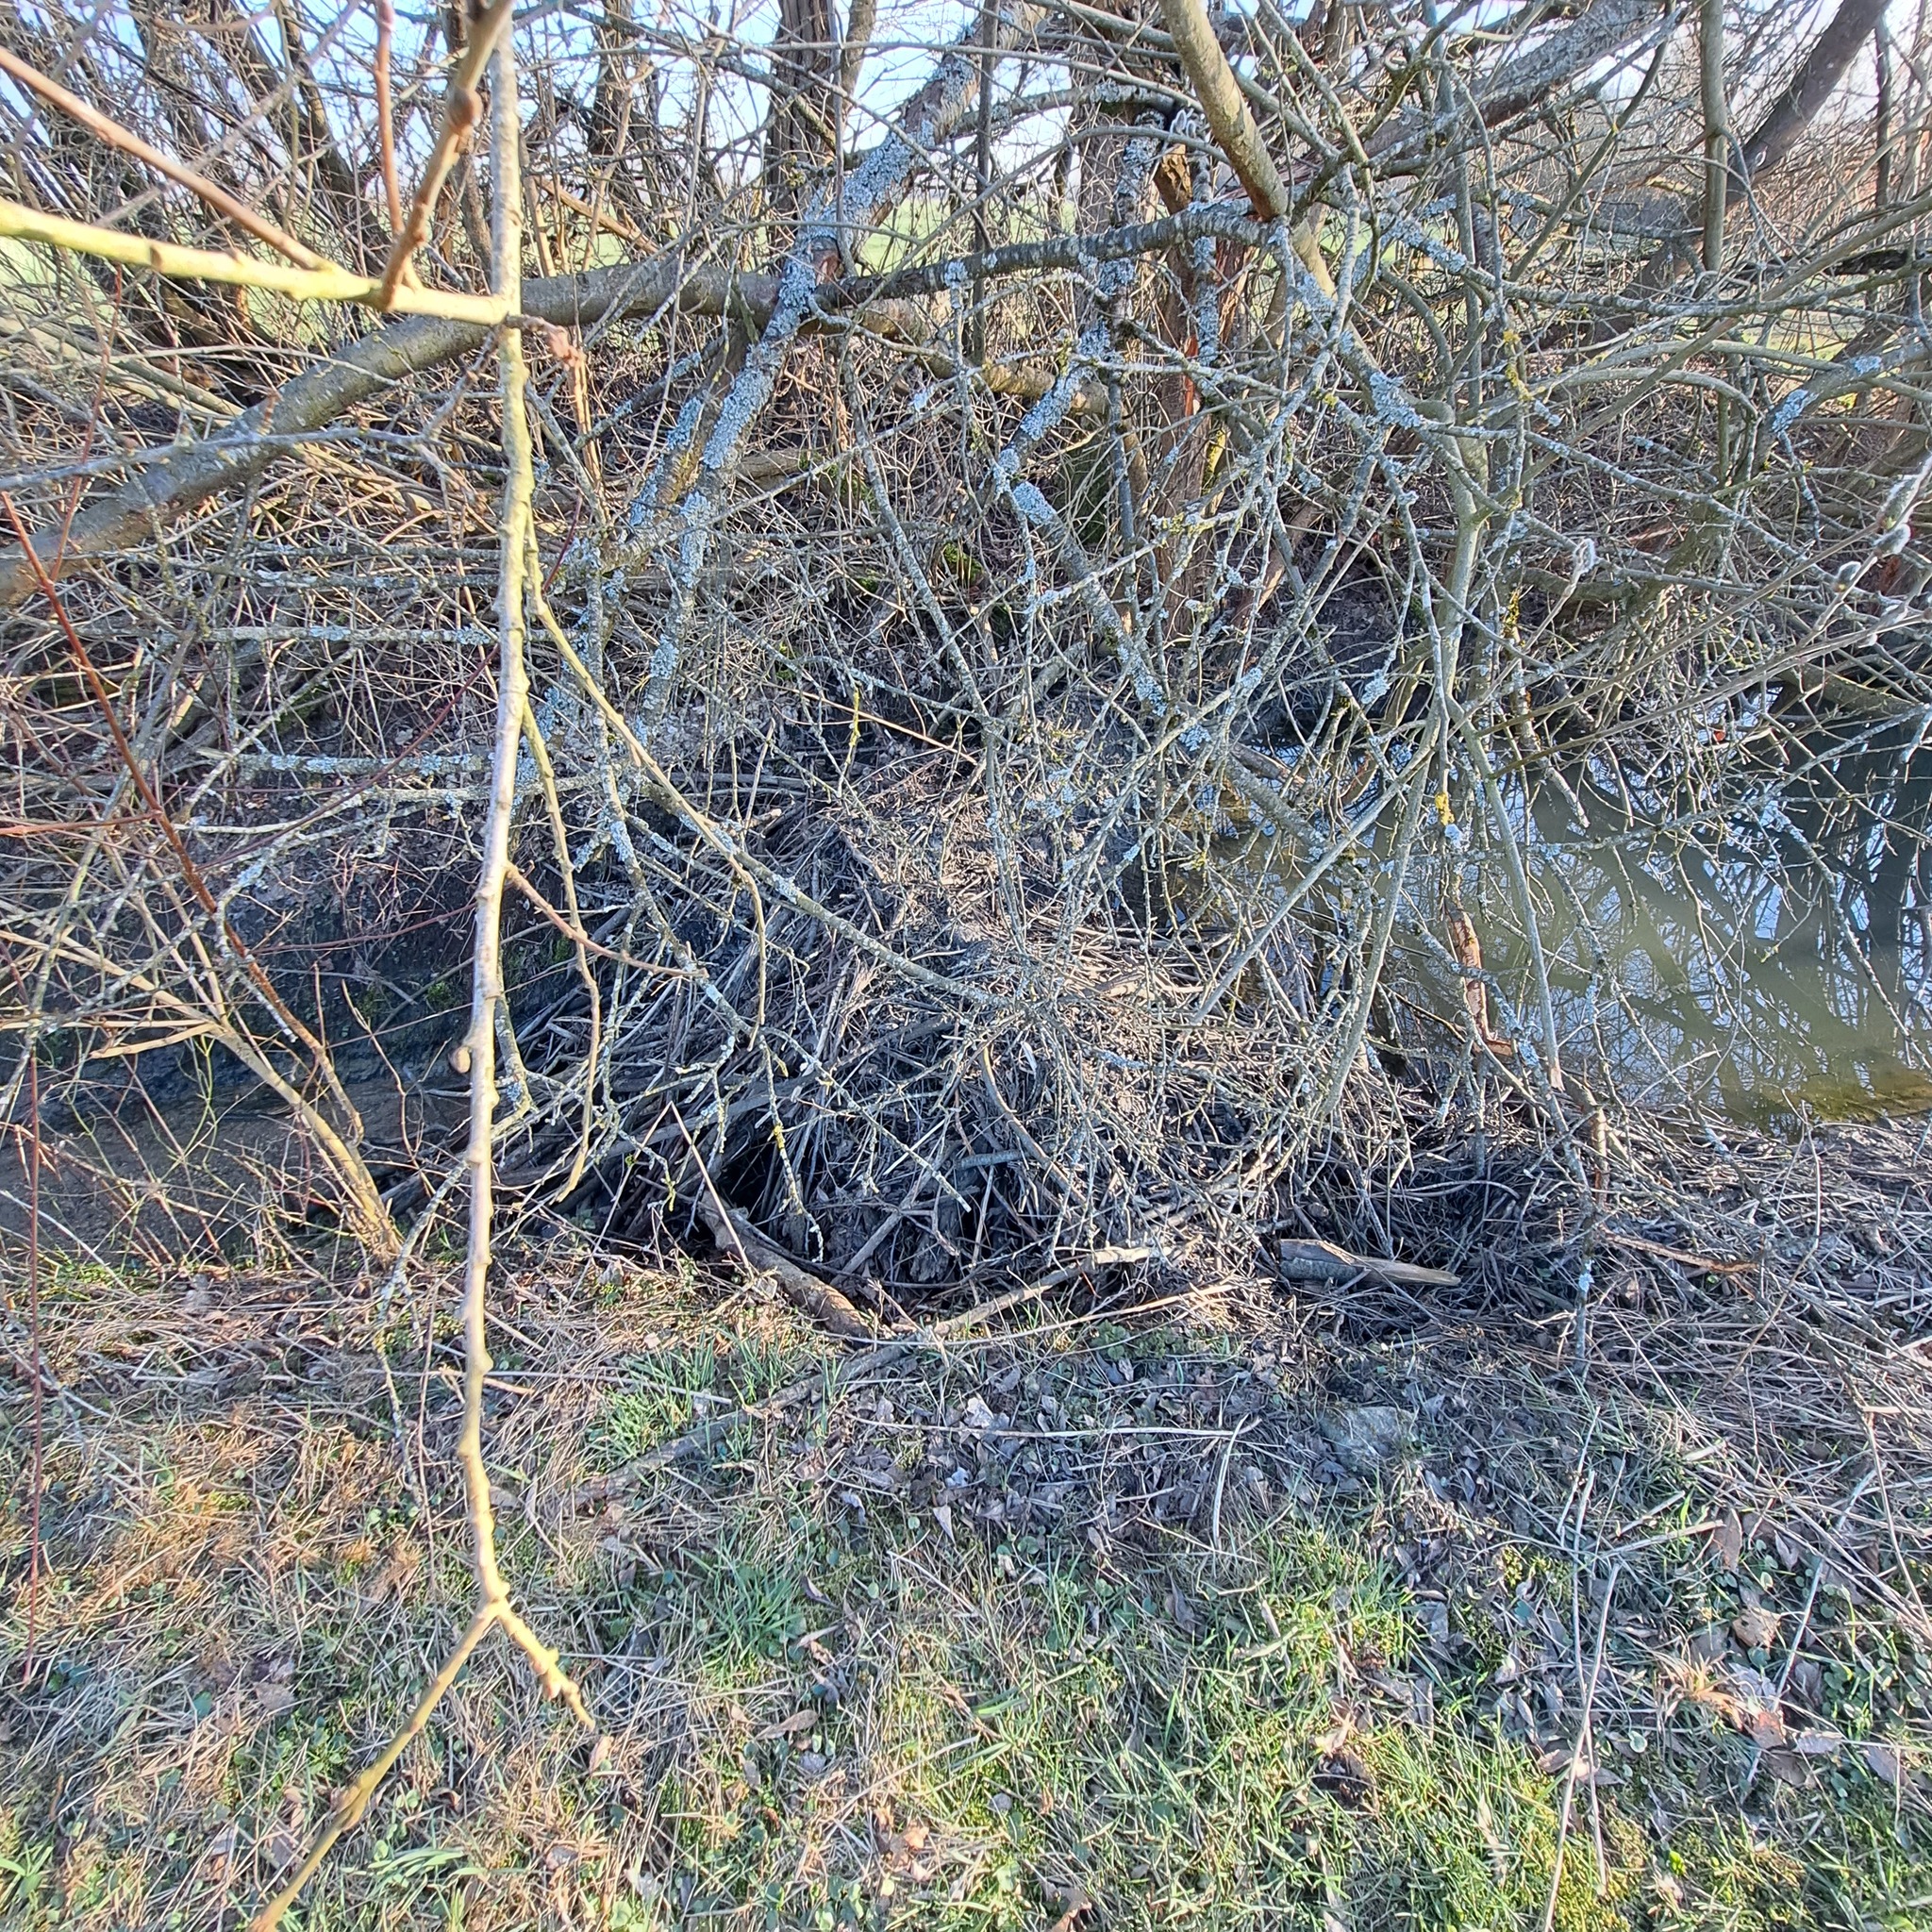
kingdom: Animalia
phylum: Chordata
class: Mammalia
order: Rodentia
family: Castoridae
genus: Castor
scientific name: Castor fiber
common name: Eurasian beaver
